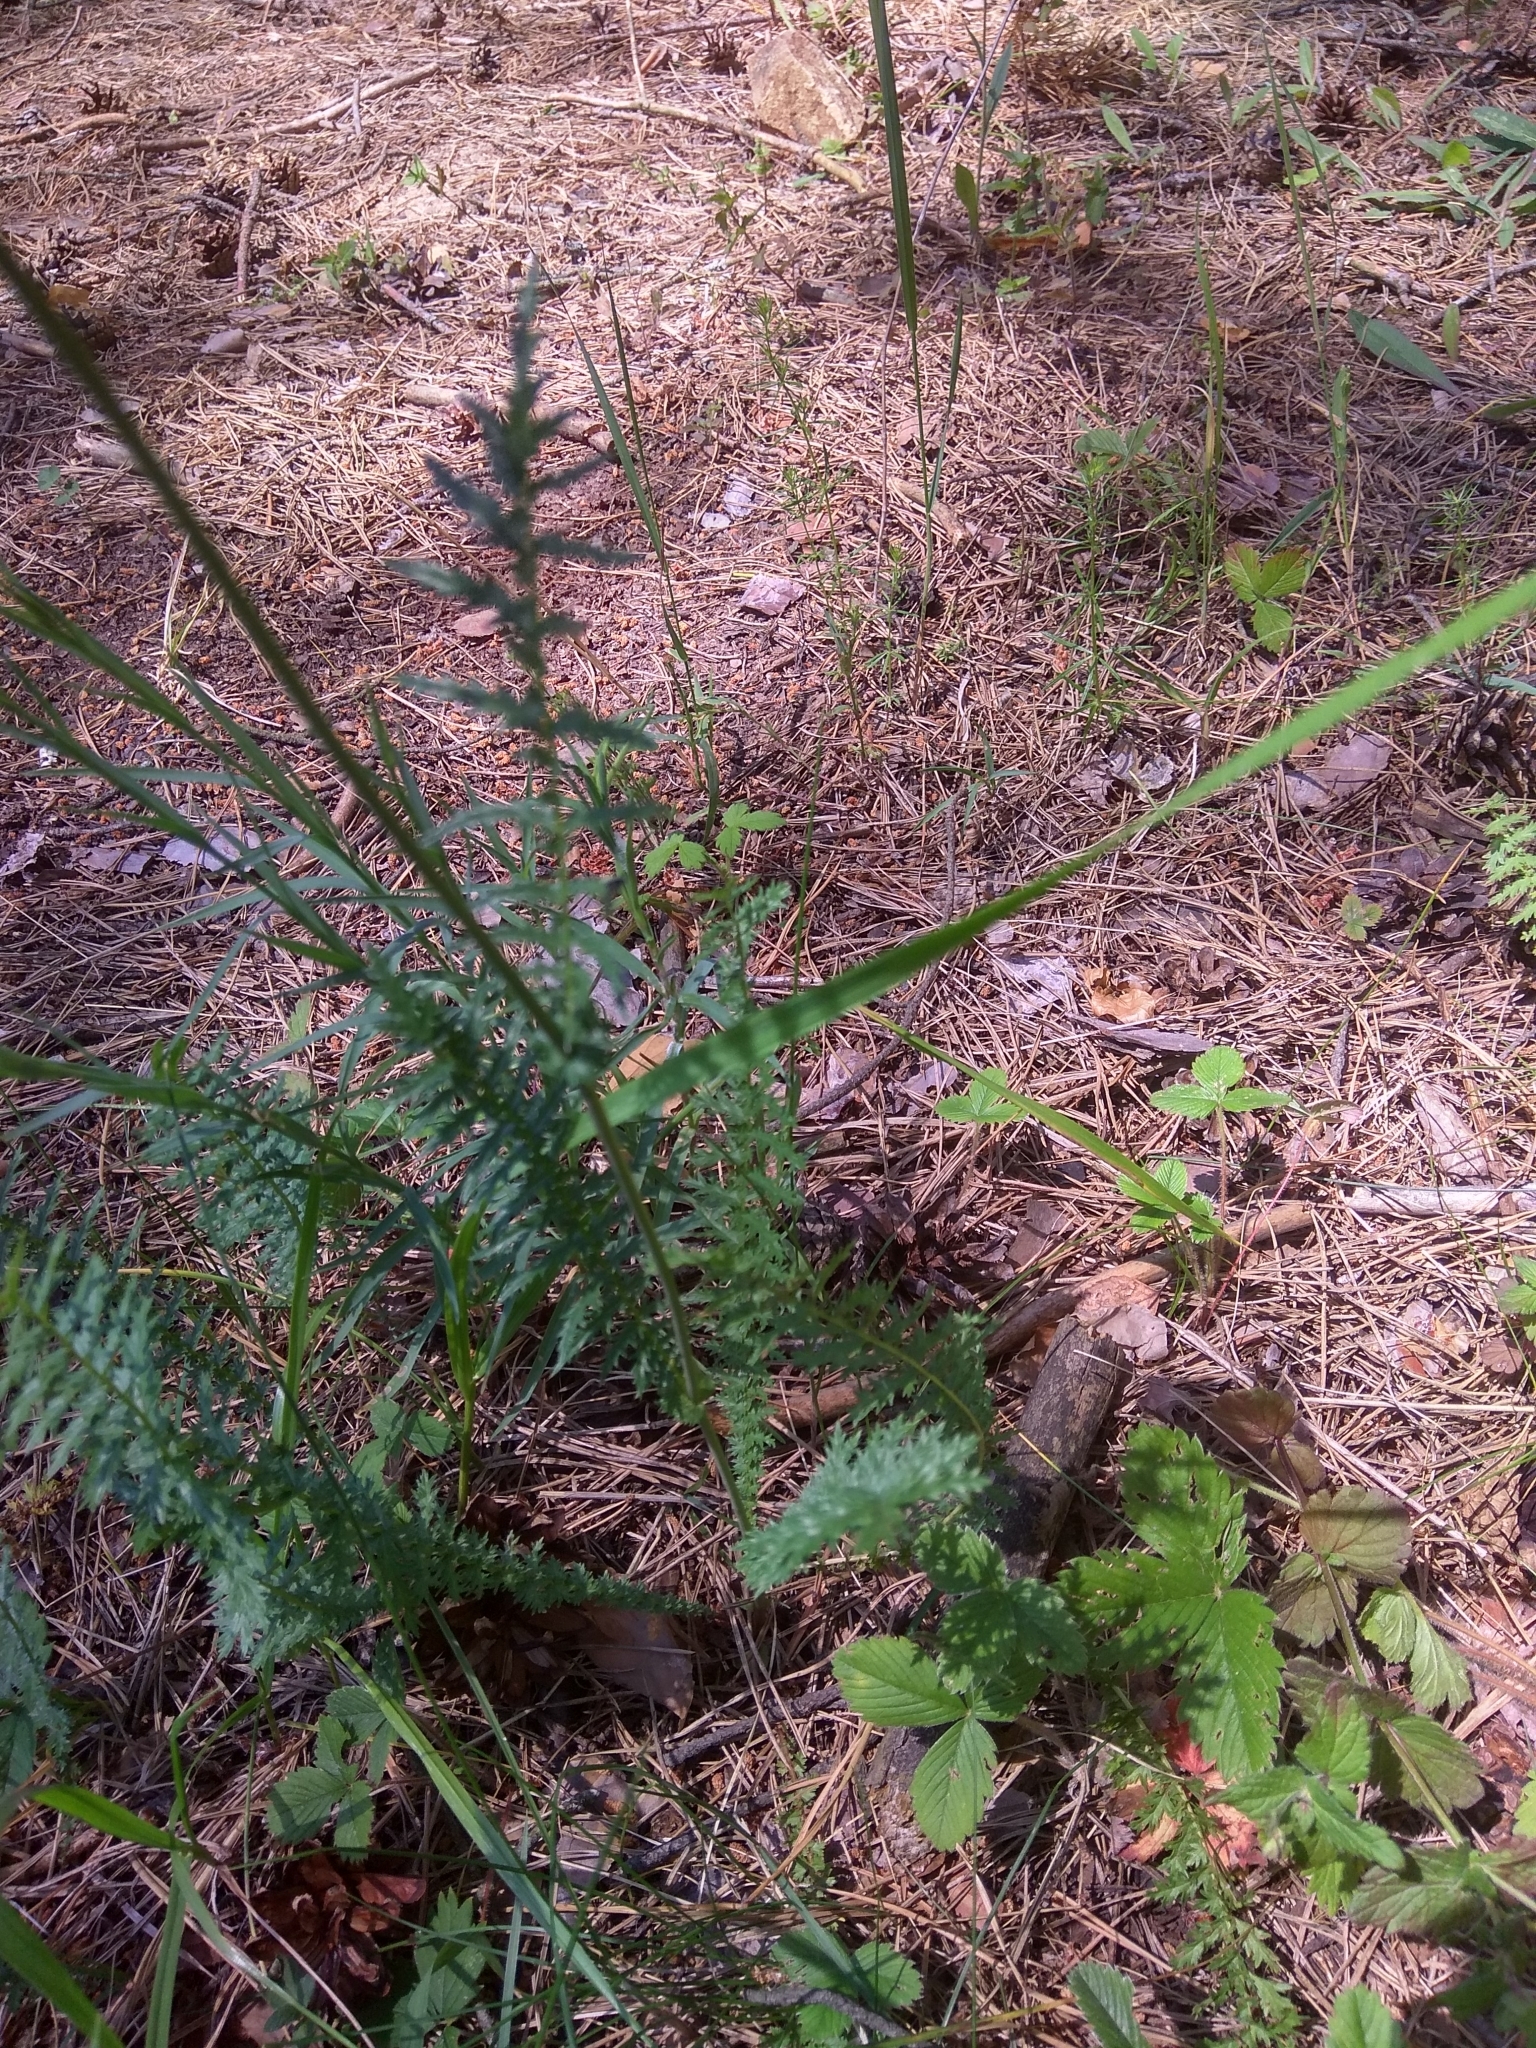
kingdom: Plantae
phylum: Tracheophyta
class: Magnoliopsida
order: Rosales
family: Rosaceae
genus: Filipendula
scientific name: Filipendula vulgaris
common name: Dropwort
